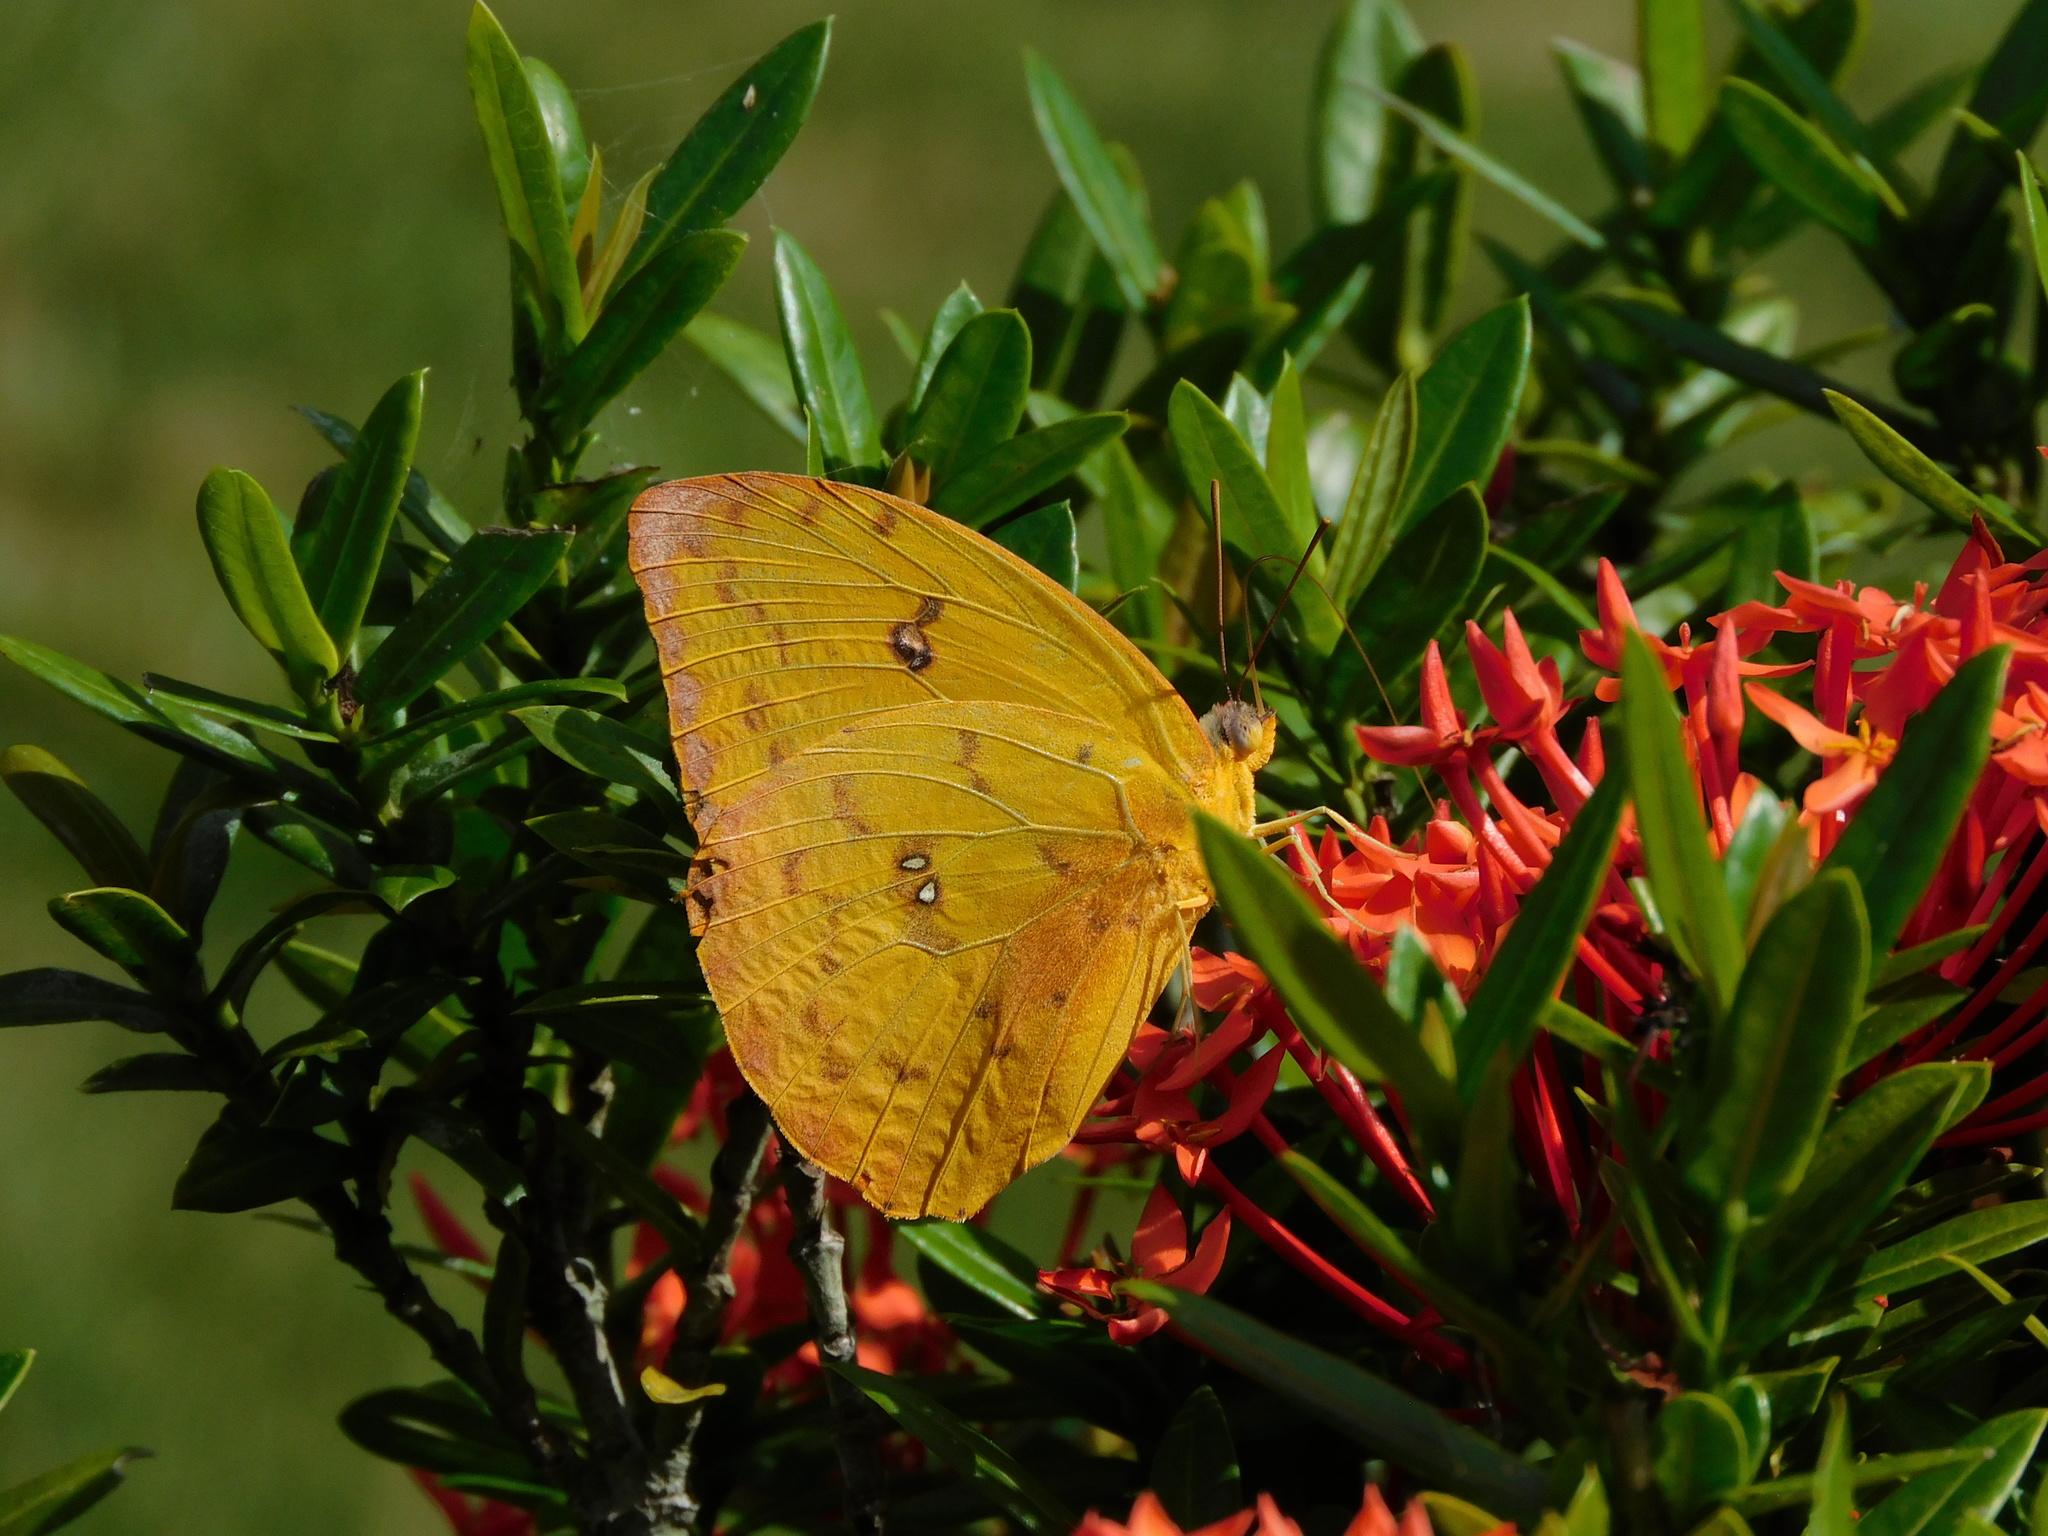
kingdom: Animalia
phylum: Arthropoda
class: Insecta
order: Lepidoptera
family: Pieridae
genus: Phoebis
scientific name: Phoebis philea
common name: Orange-barred giant sulphur
